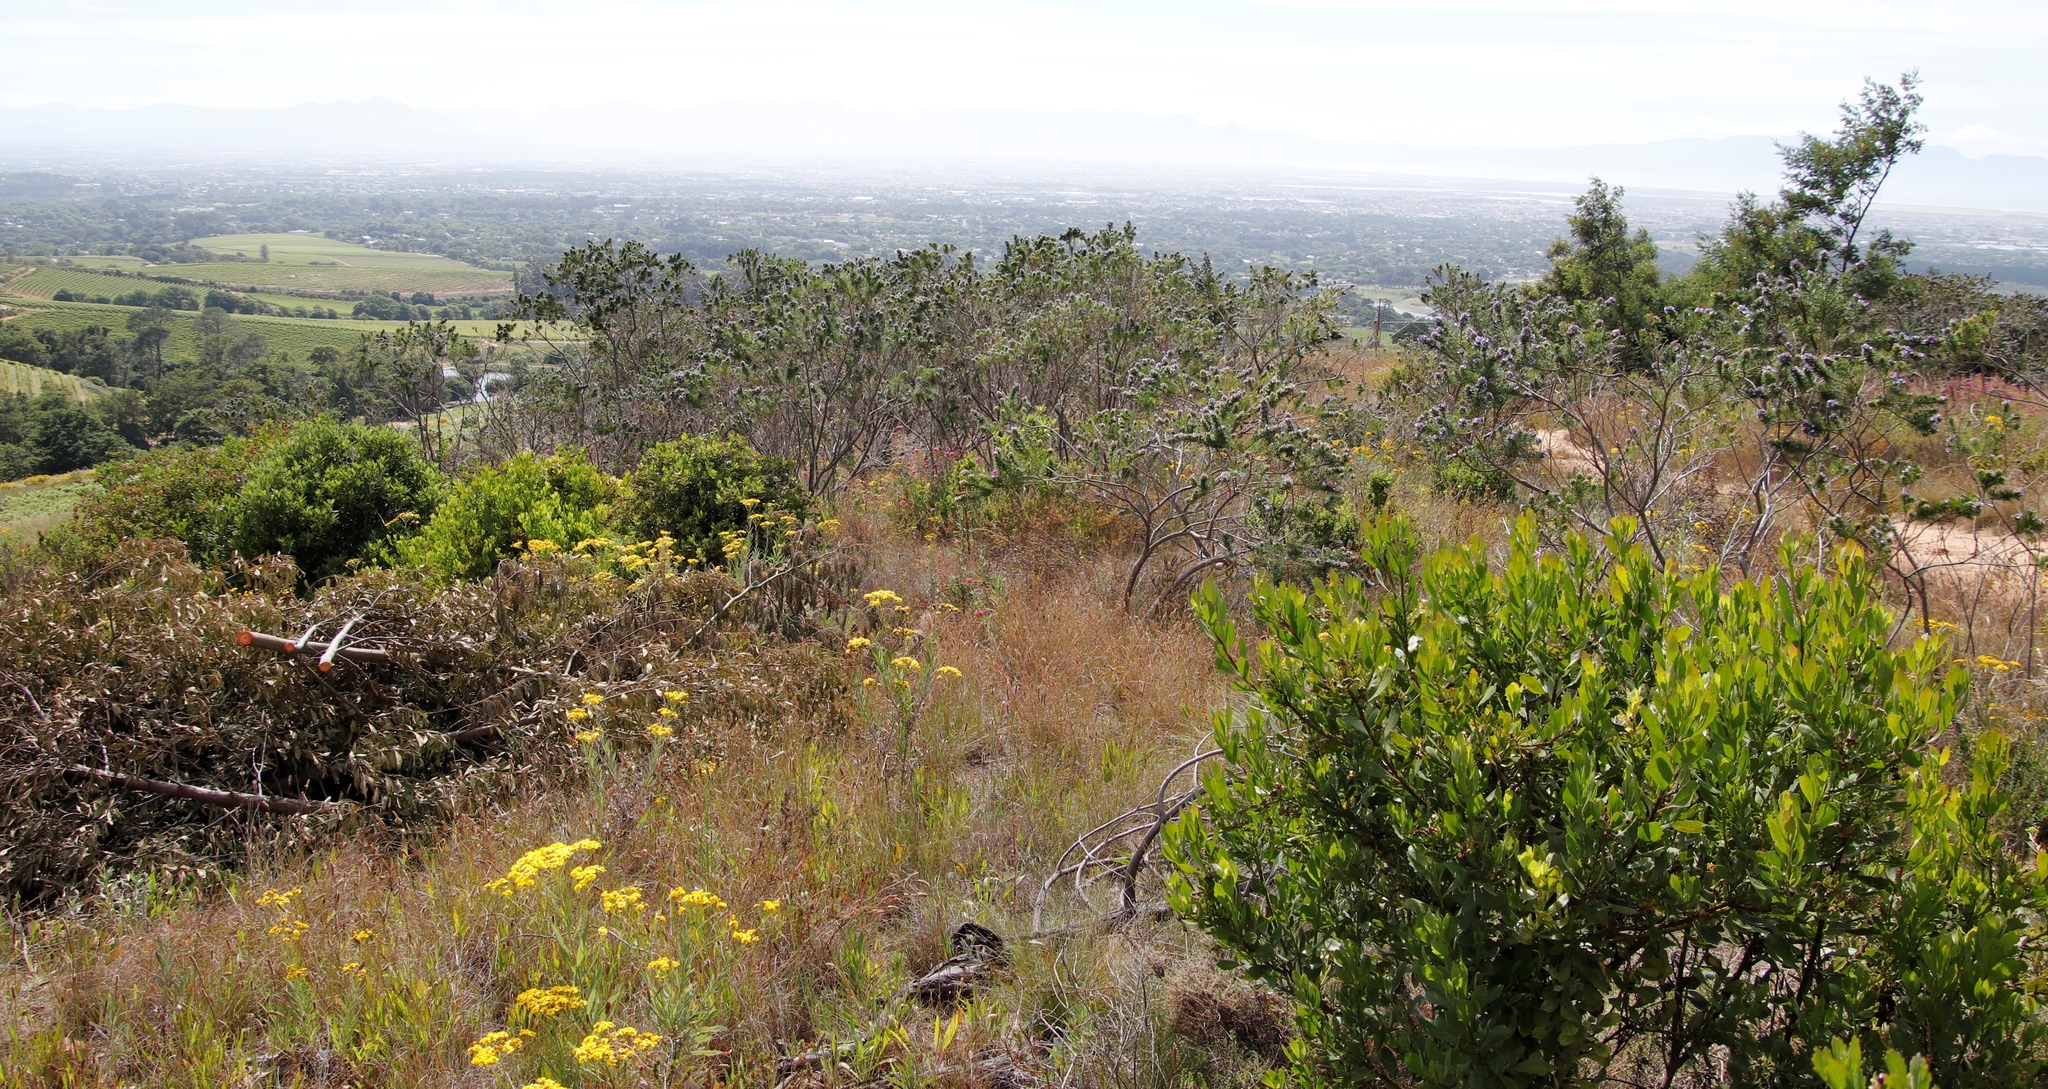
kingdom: Plantae
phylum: Tracheophyta
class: Magnoliopsida
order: Fabales
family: Fabaceae
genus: Psoralea
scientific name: Psoralea pinnata
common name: African scurfpea
